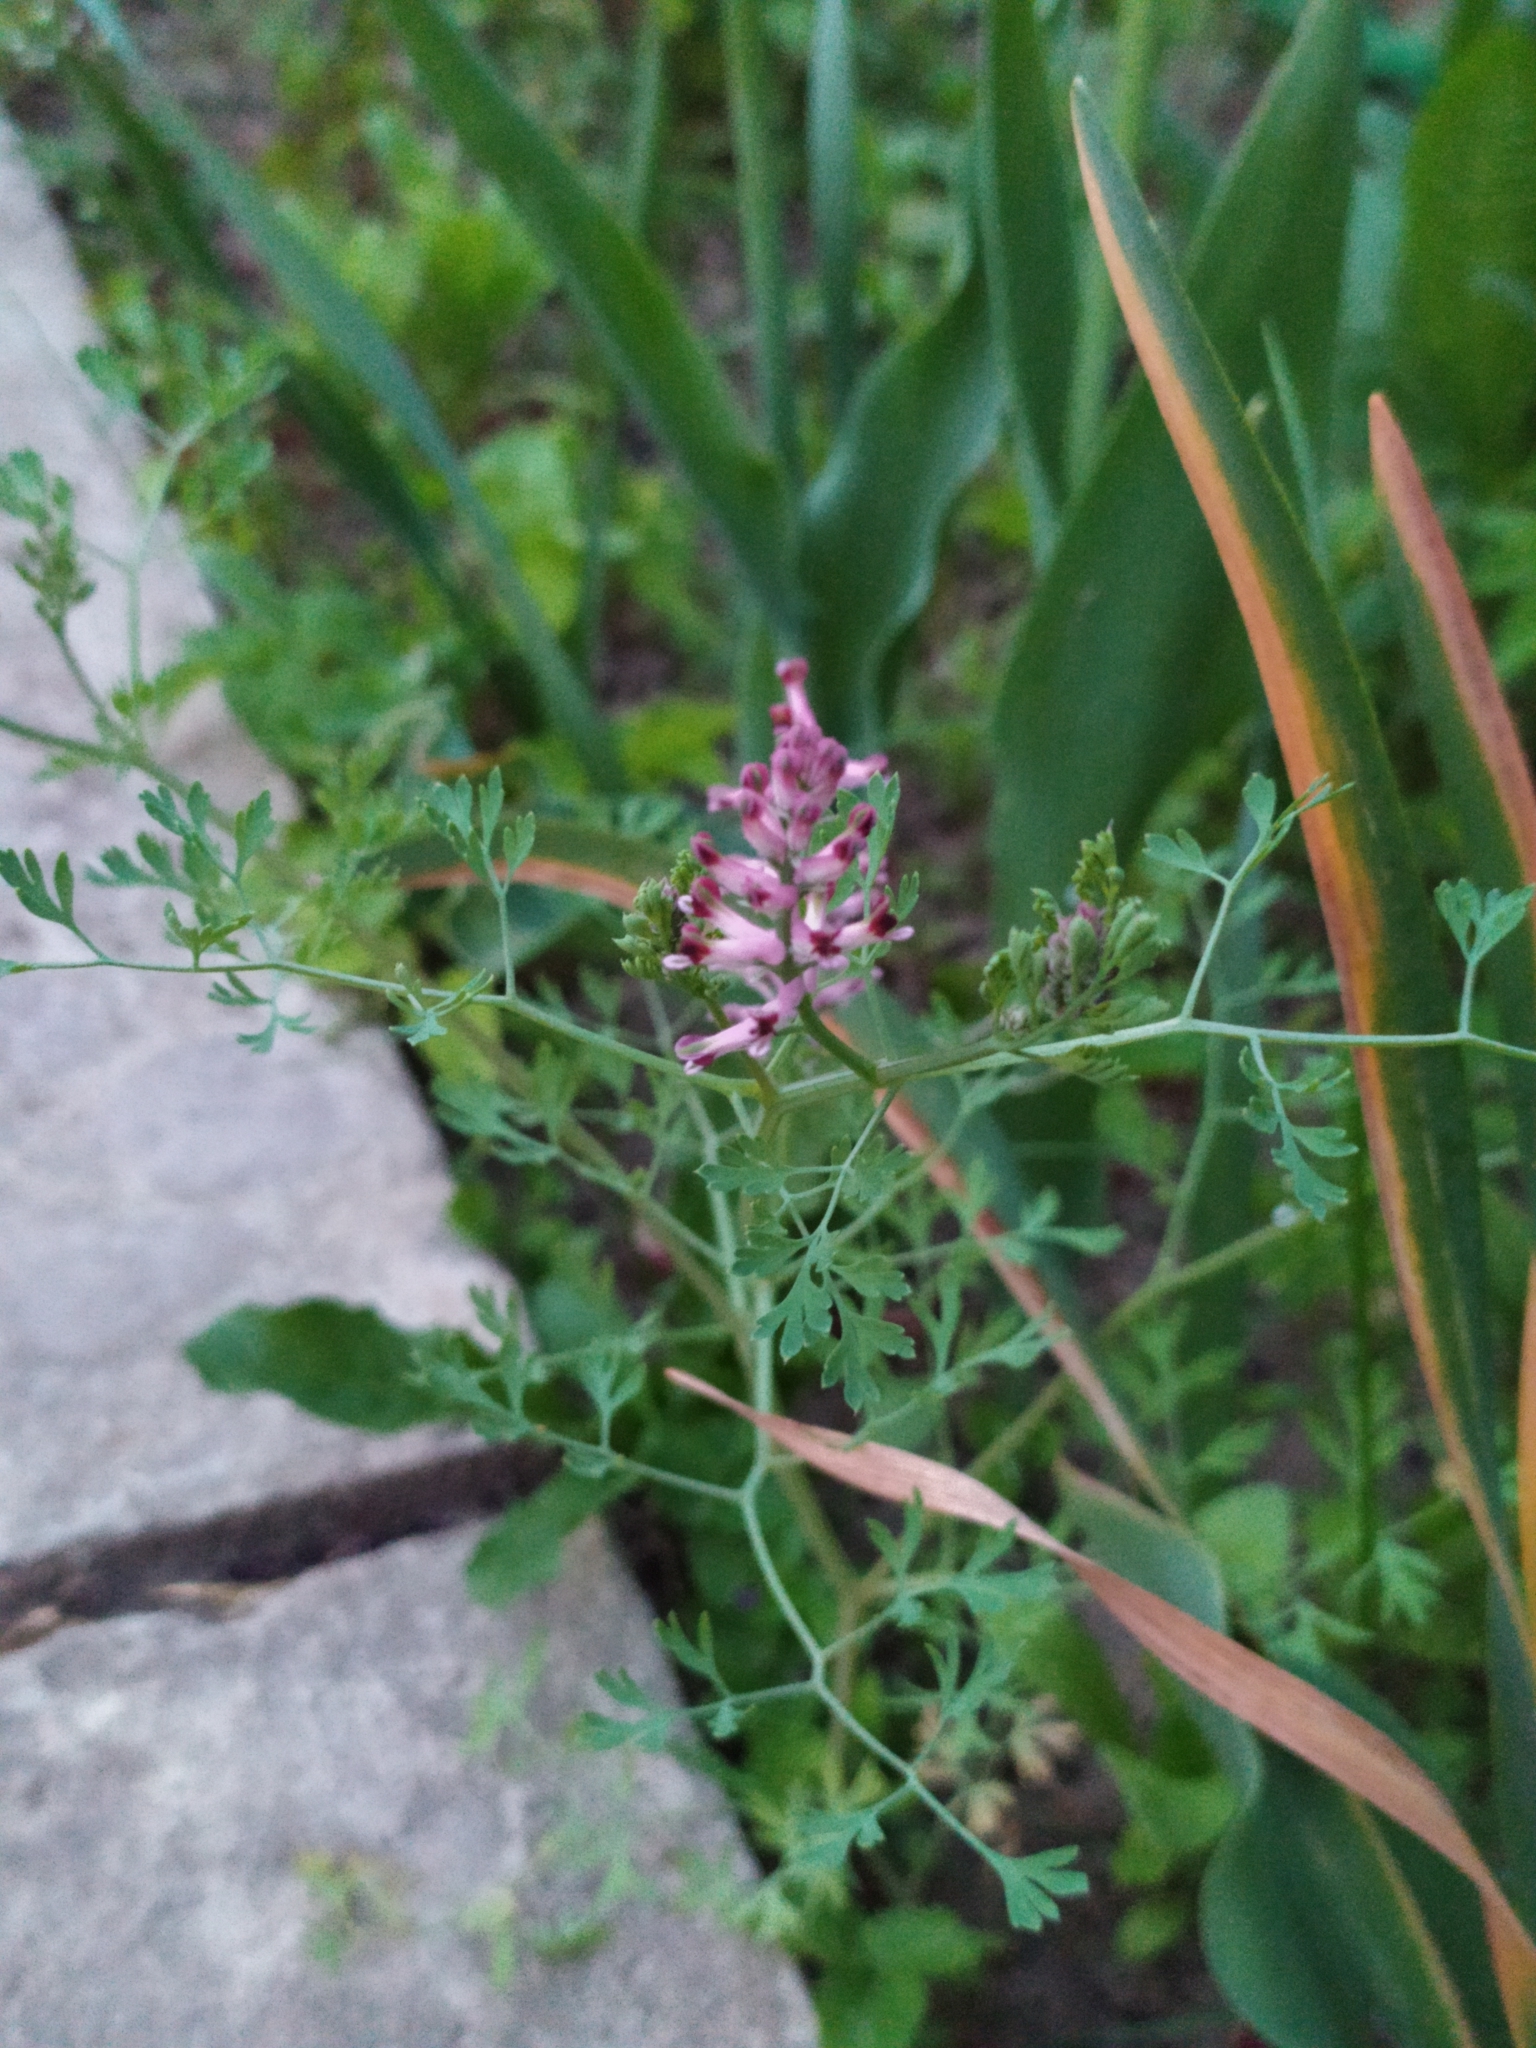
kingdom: Plantae
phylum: Tracheophyta
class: Magnoliopsida
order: Ranunculales
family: Papaveraceae
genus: Fumaria
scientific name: Fumaria officinalis
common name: Common fumitory
